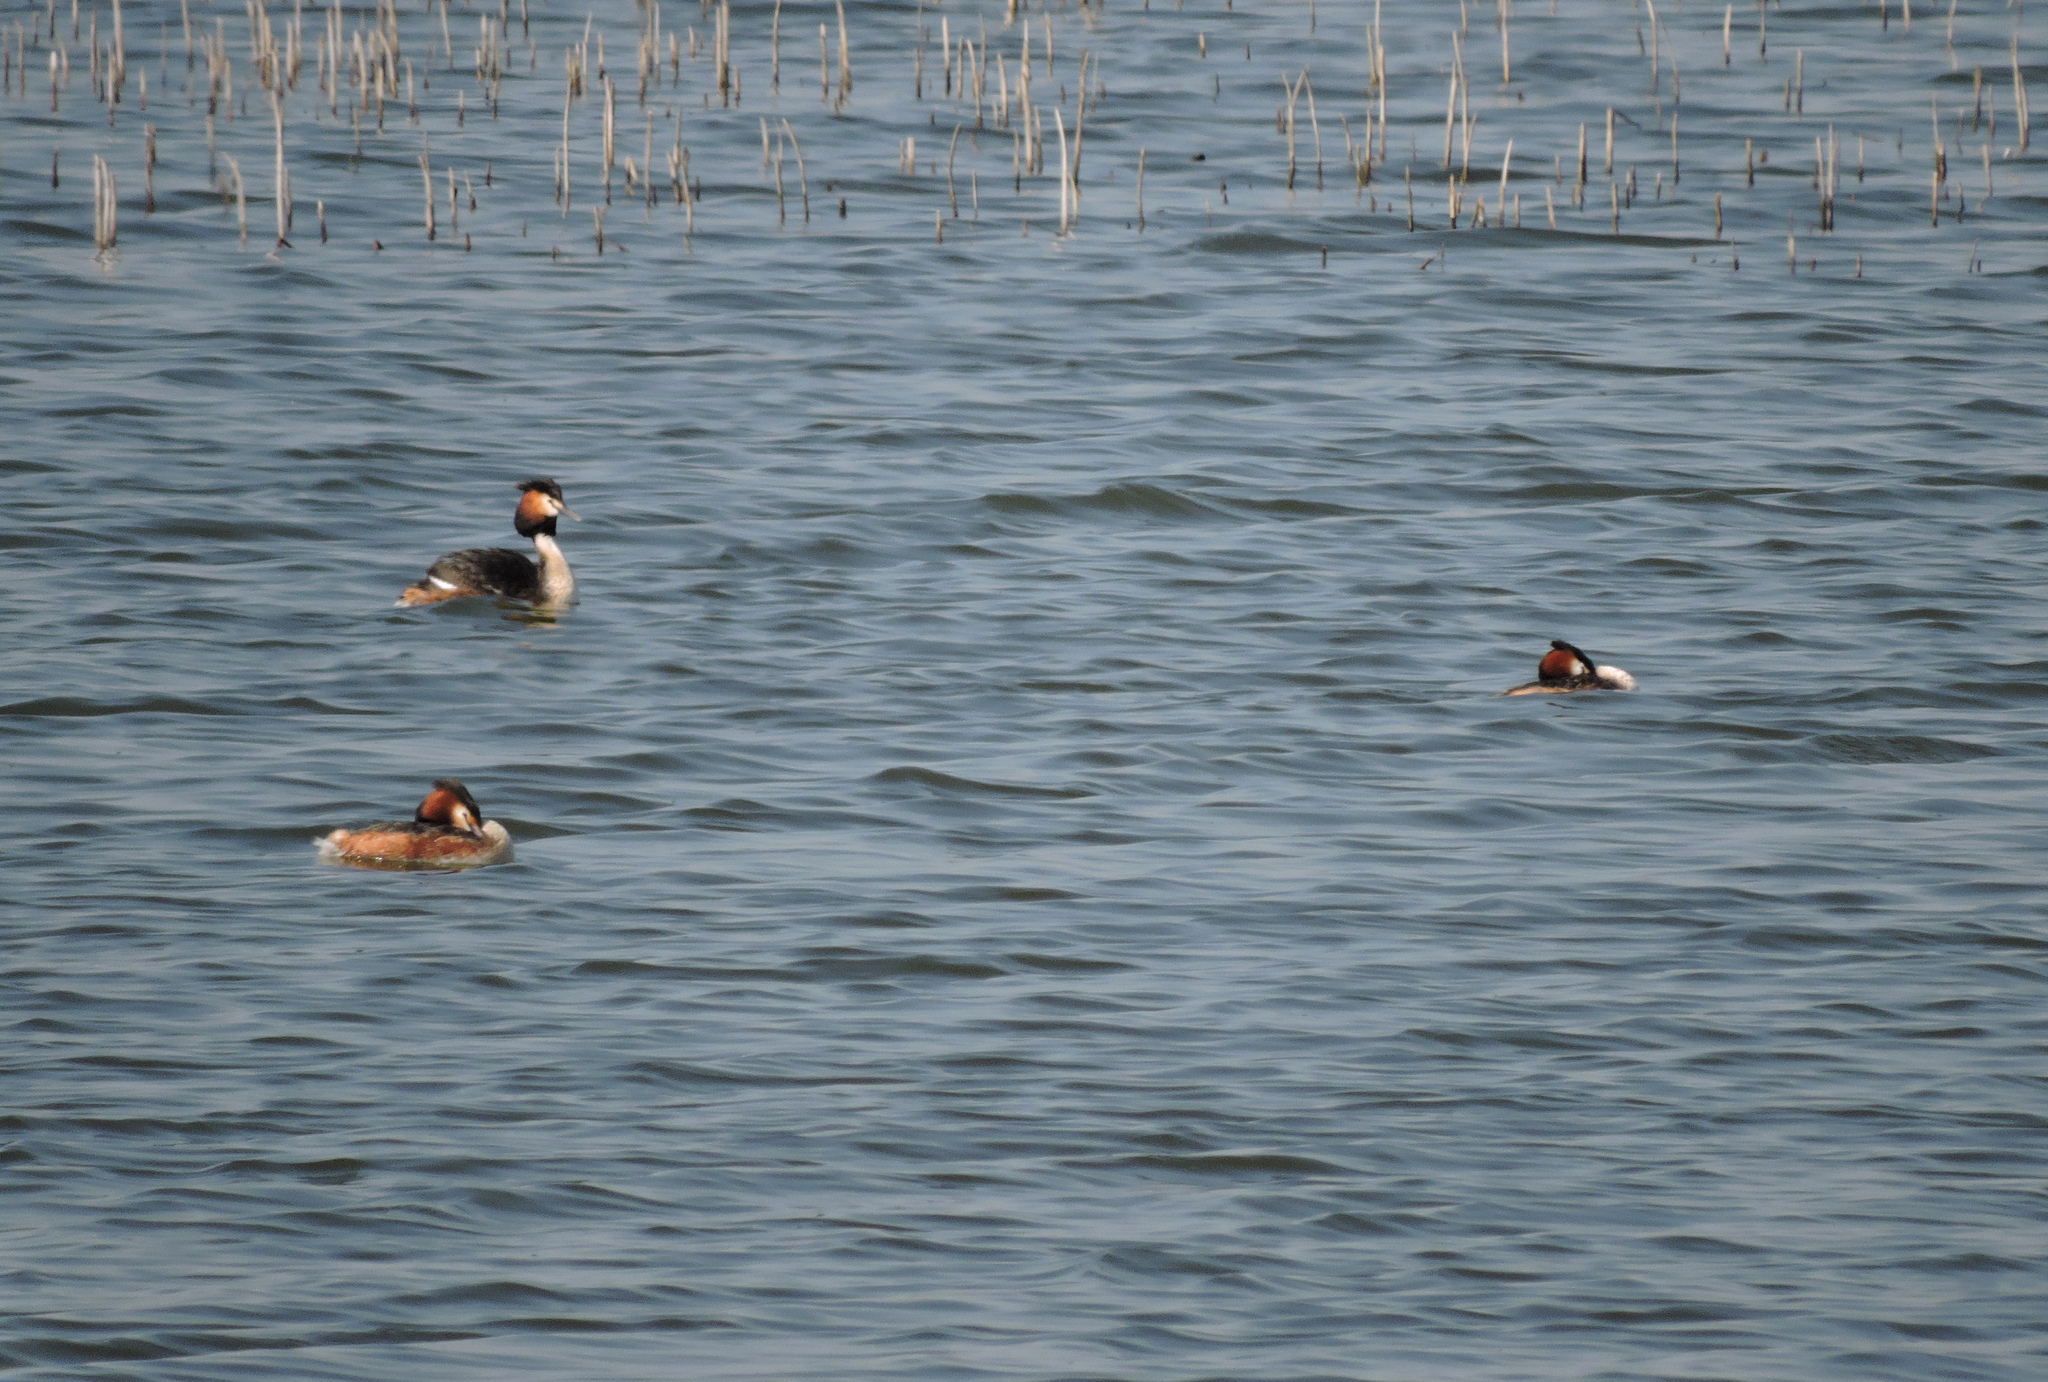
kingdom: Animalia
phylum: Chordata
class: Aves
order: Podicipediformes
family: Podicipedidae
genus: Podiceps
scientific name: Podiceps cristatus
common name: Great crested grebe
